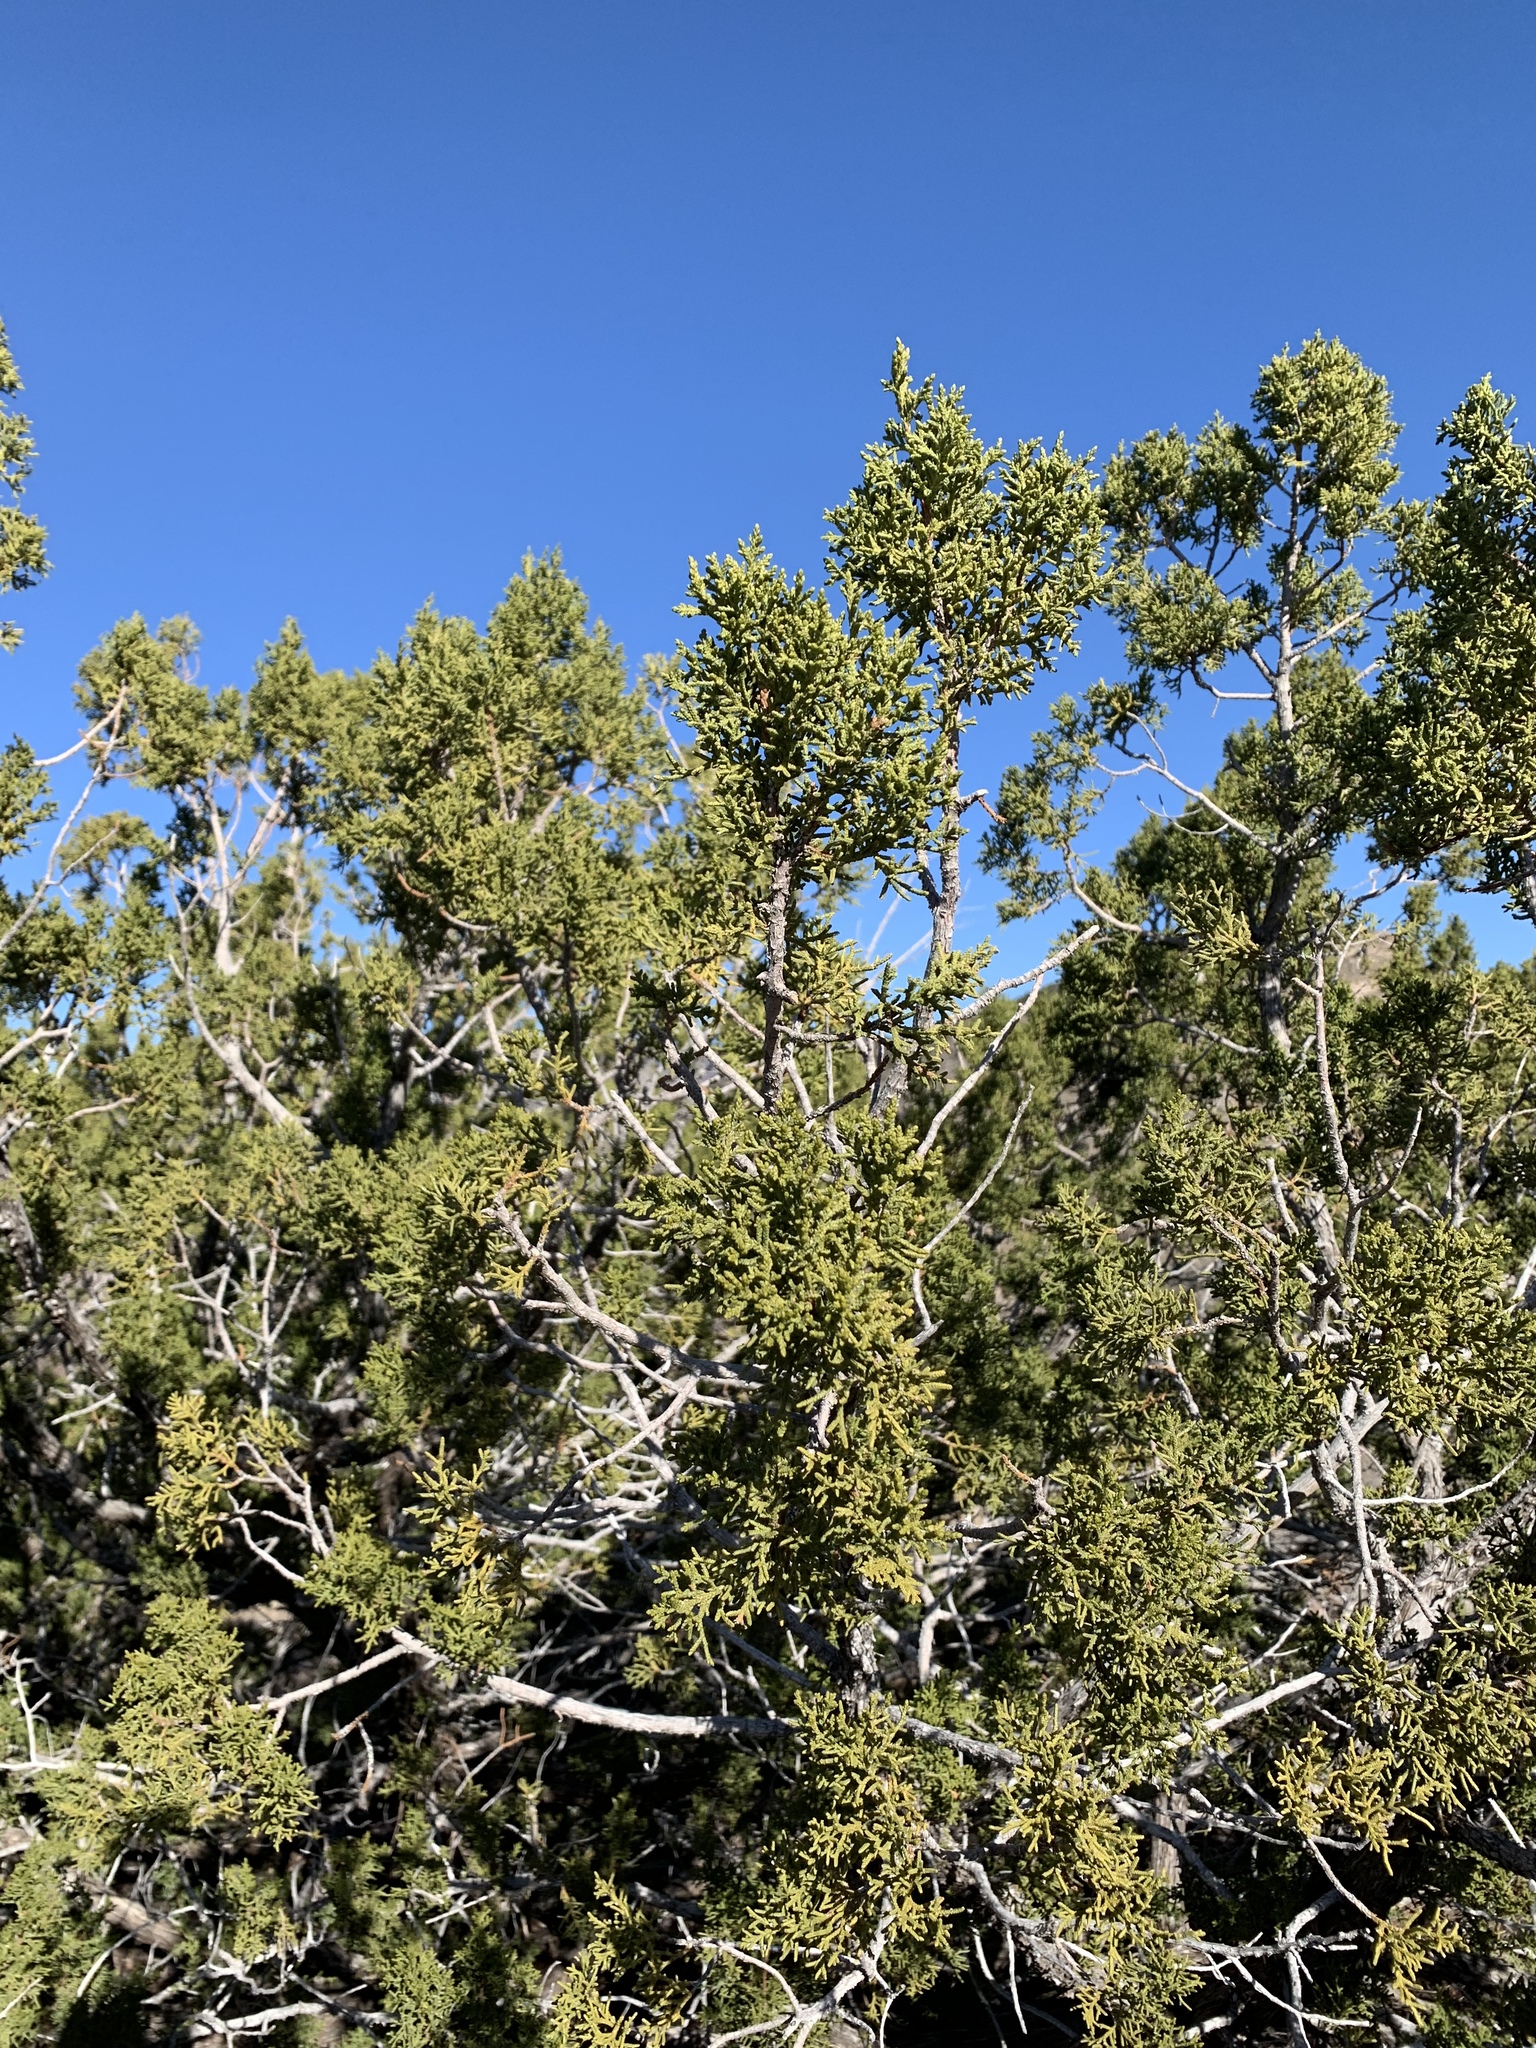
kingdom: Plantae
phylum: Tracheophyta
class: Pinopsida
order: Pinales
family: Cupressaceae
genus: Juniperus
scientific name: Juniperus monosperma
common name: One-seed juniper
